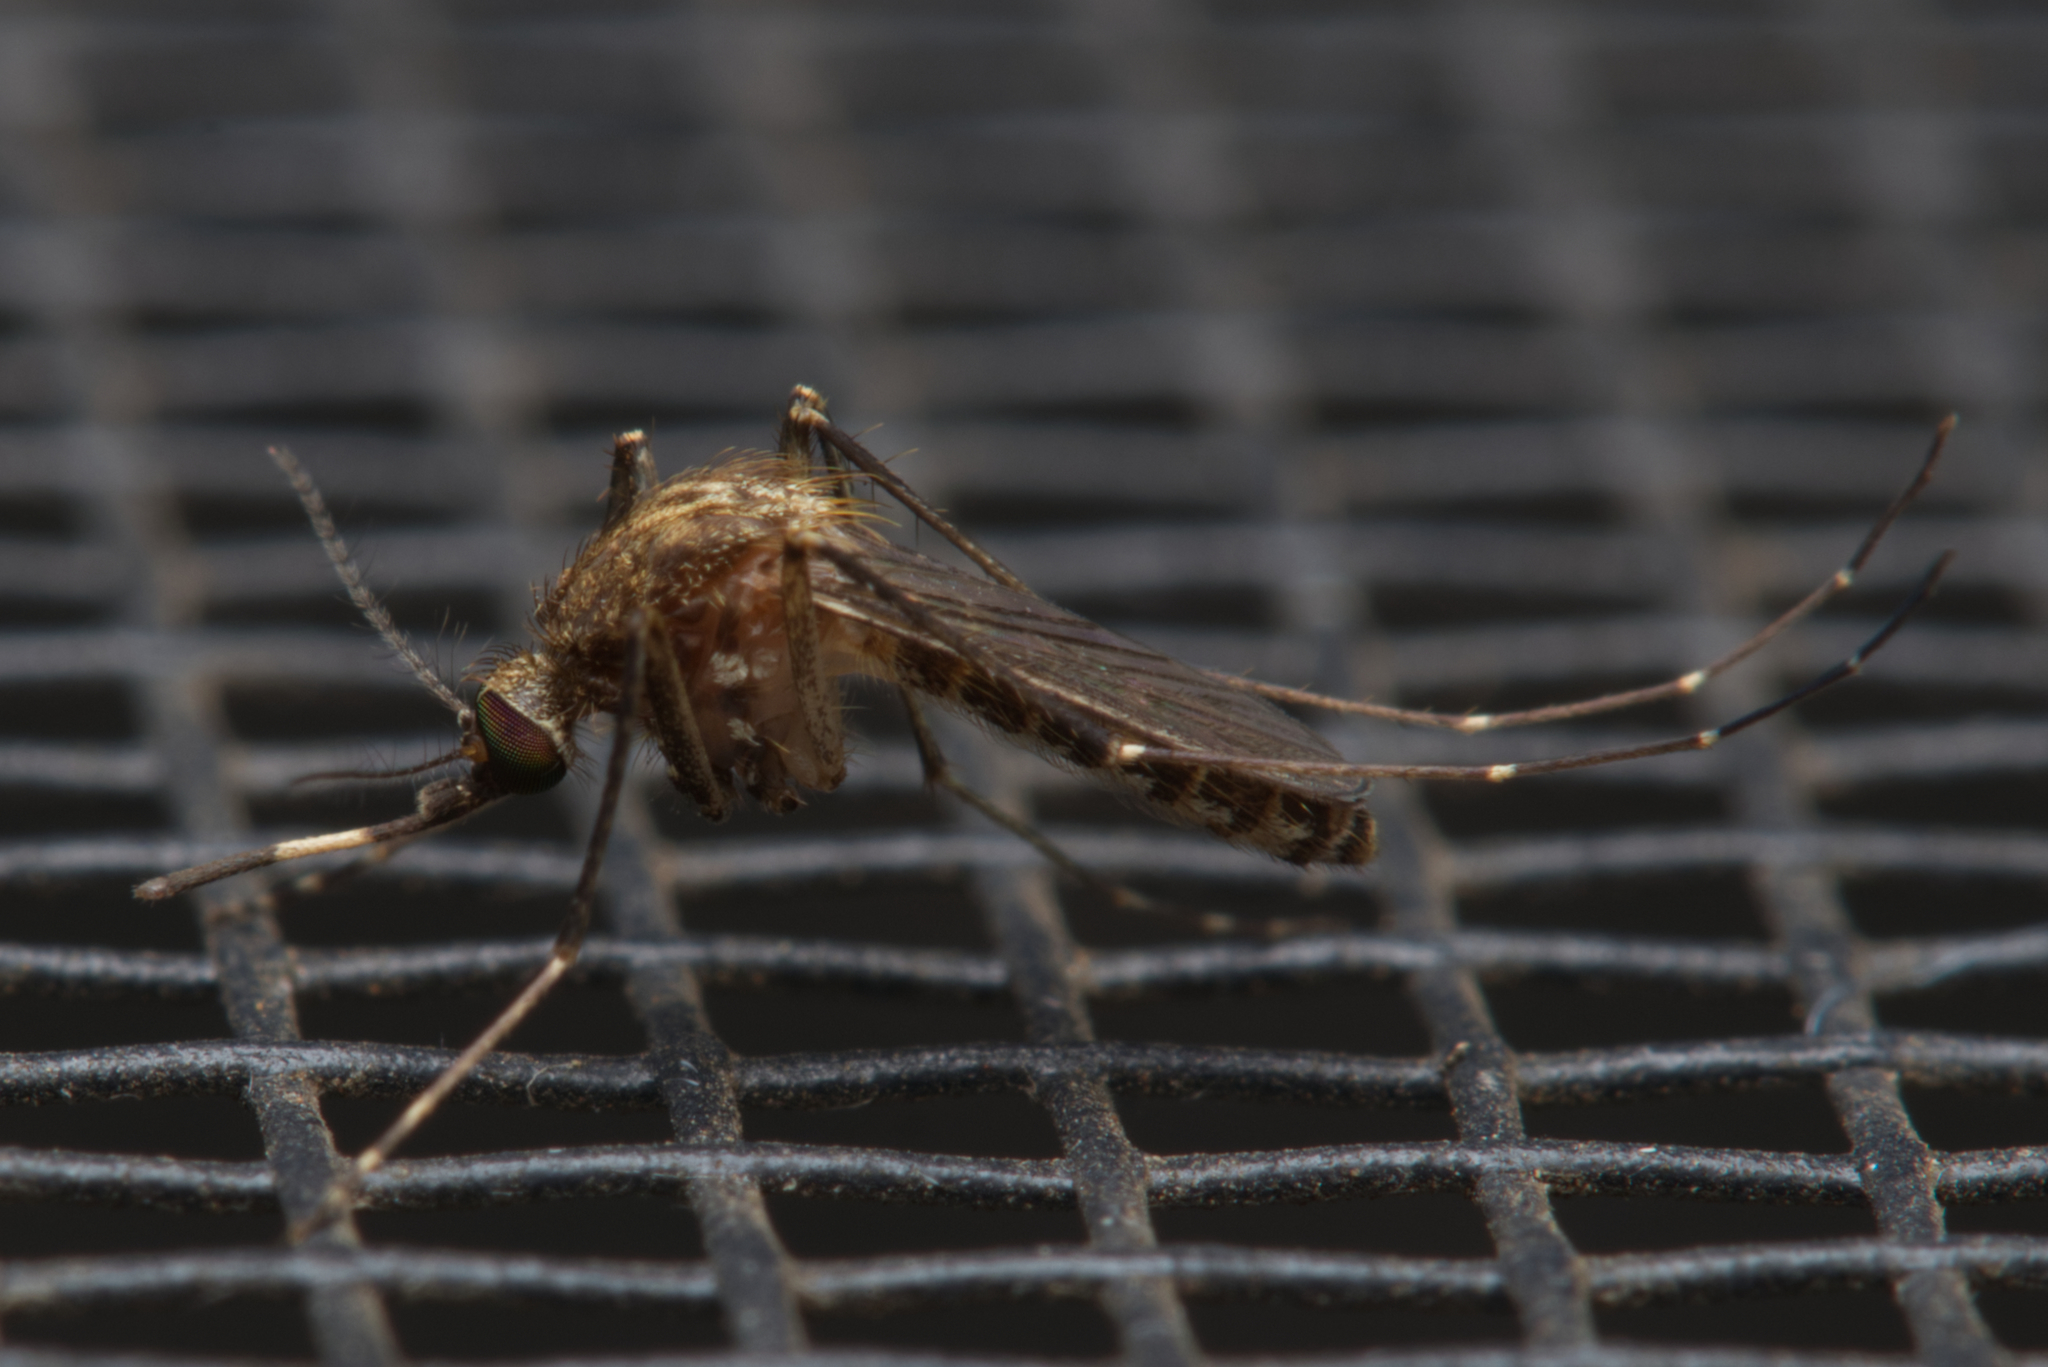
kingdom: Animalia
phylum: Arthropoda
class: Insecta
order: Diptera
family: Culicidae
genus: Culex
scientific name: Culex annulirostris
